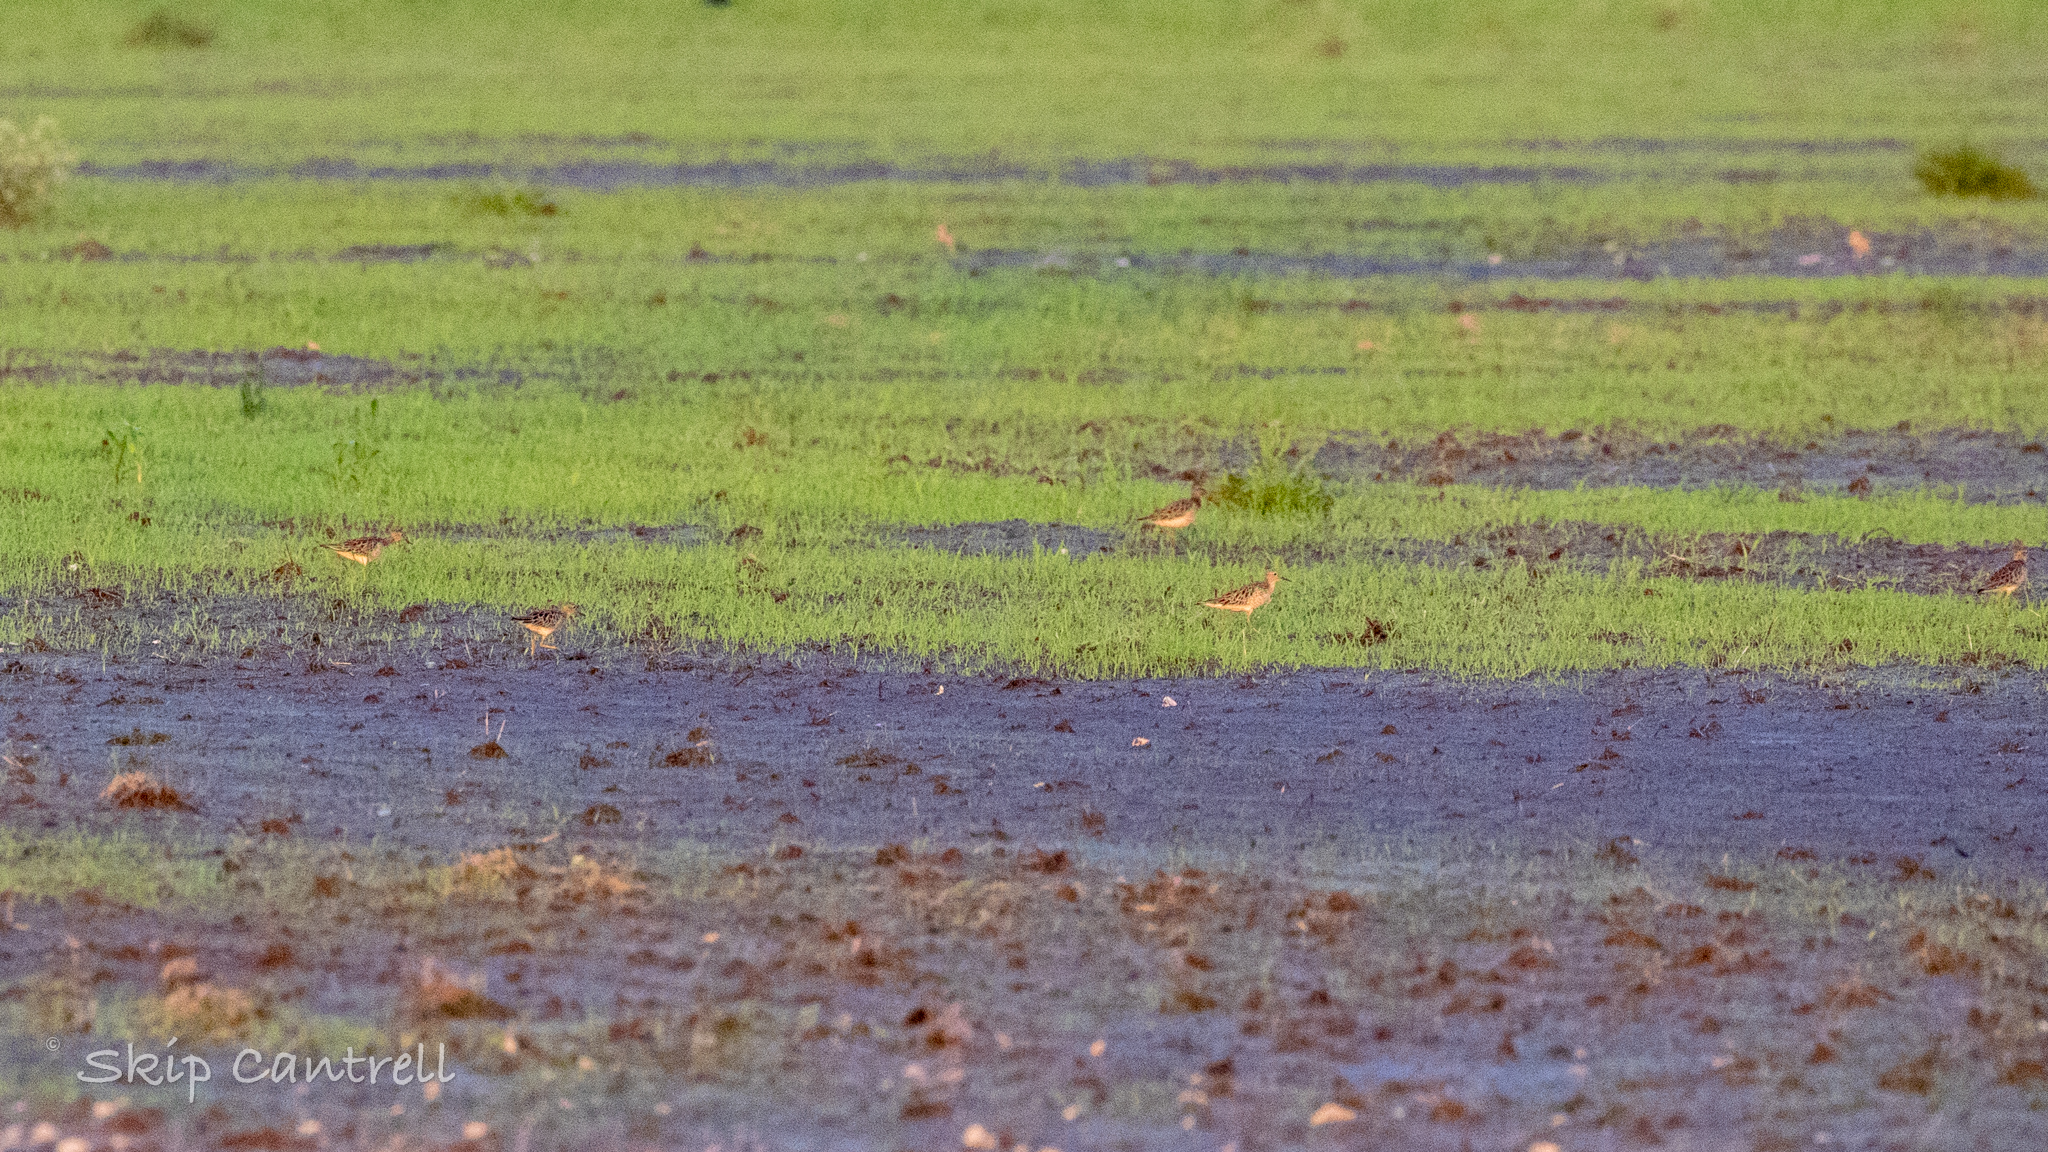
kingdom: Animalia
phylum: Chordata
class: Aves
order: Charadriiformes
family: Scolopacidae
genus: Calidris
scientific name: Calidris subruficollis
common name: Buff-breasted sandpiper
